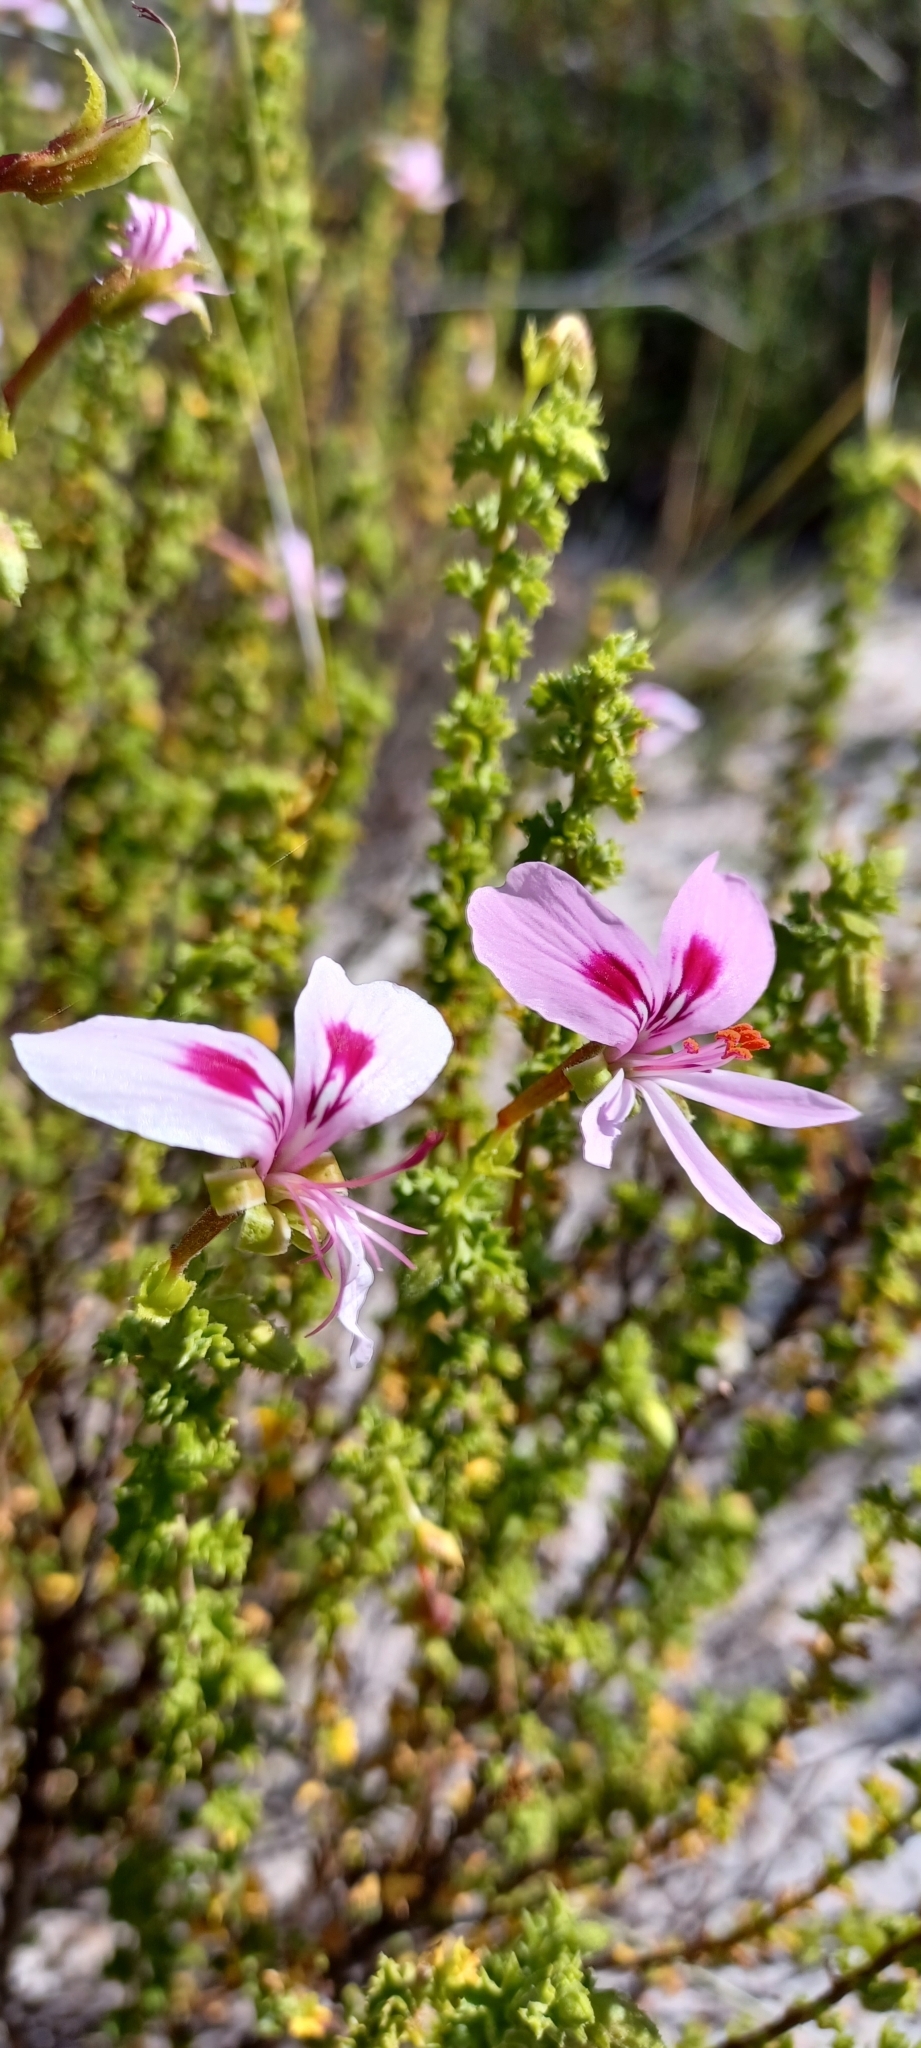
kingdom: Plantae
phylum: Tracheophyta
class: Magnoliopsida
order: Geraniales
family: Geraniaceae
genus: Pelargonium
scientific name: Pelargonium crispum
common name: Crisped-leaf pelargonium
